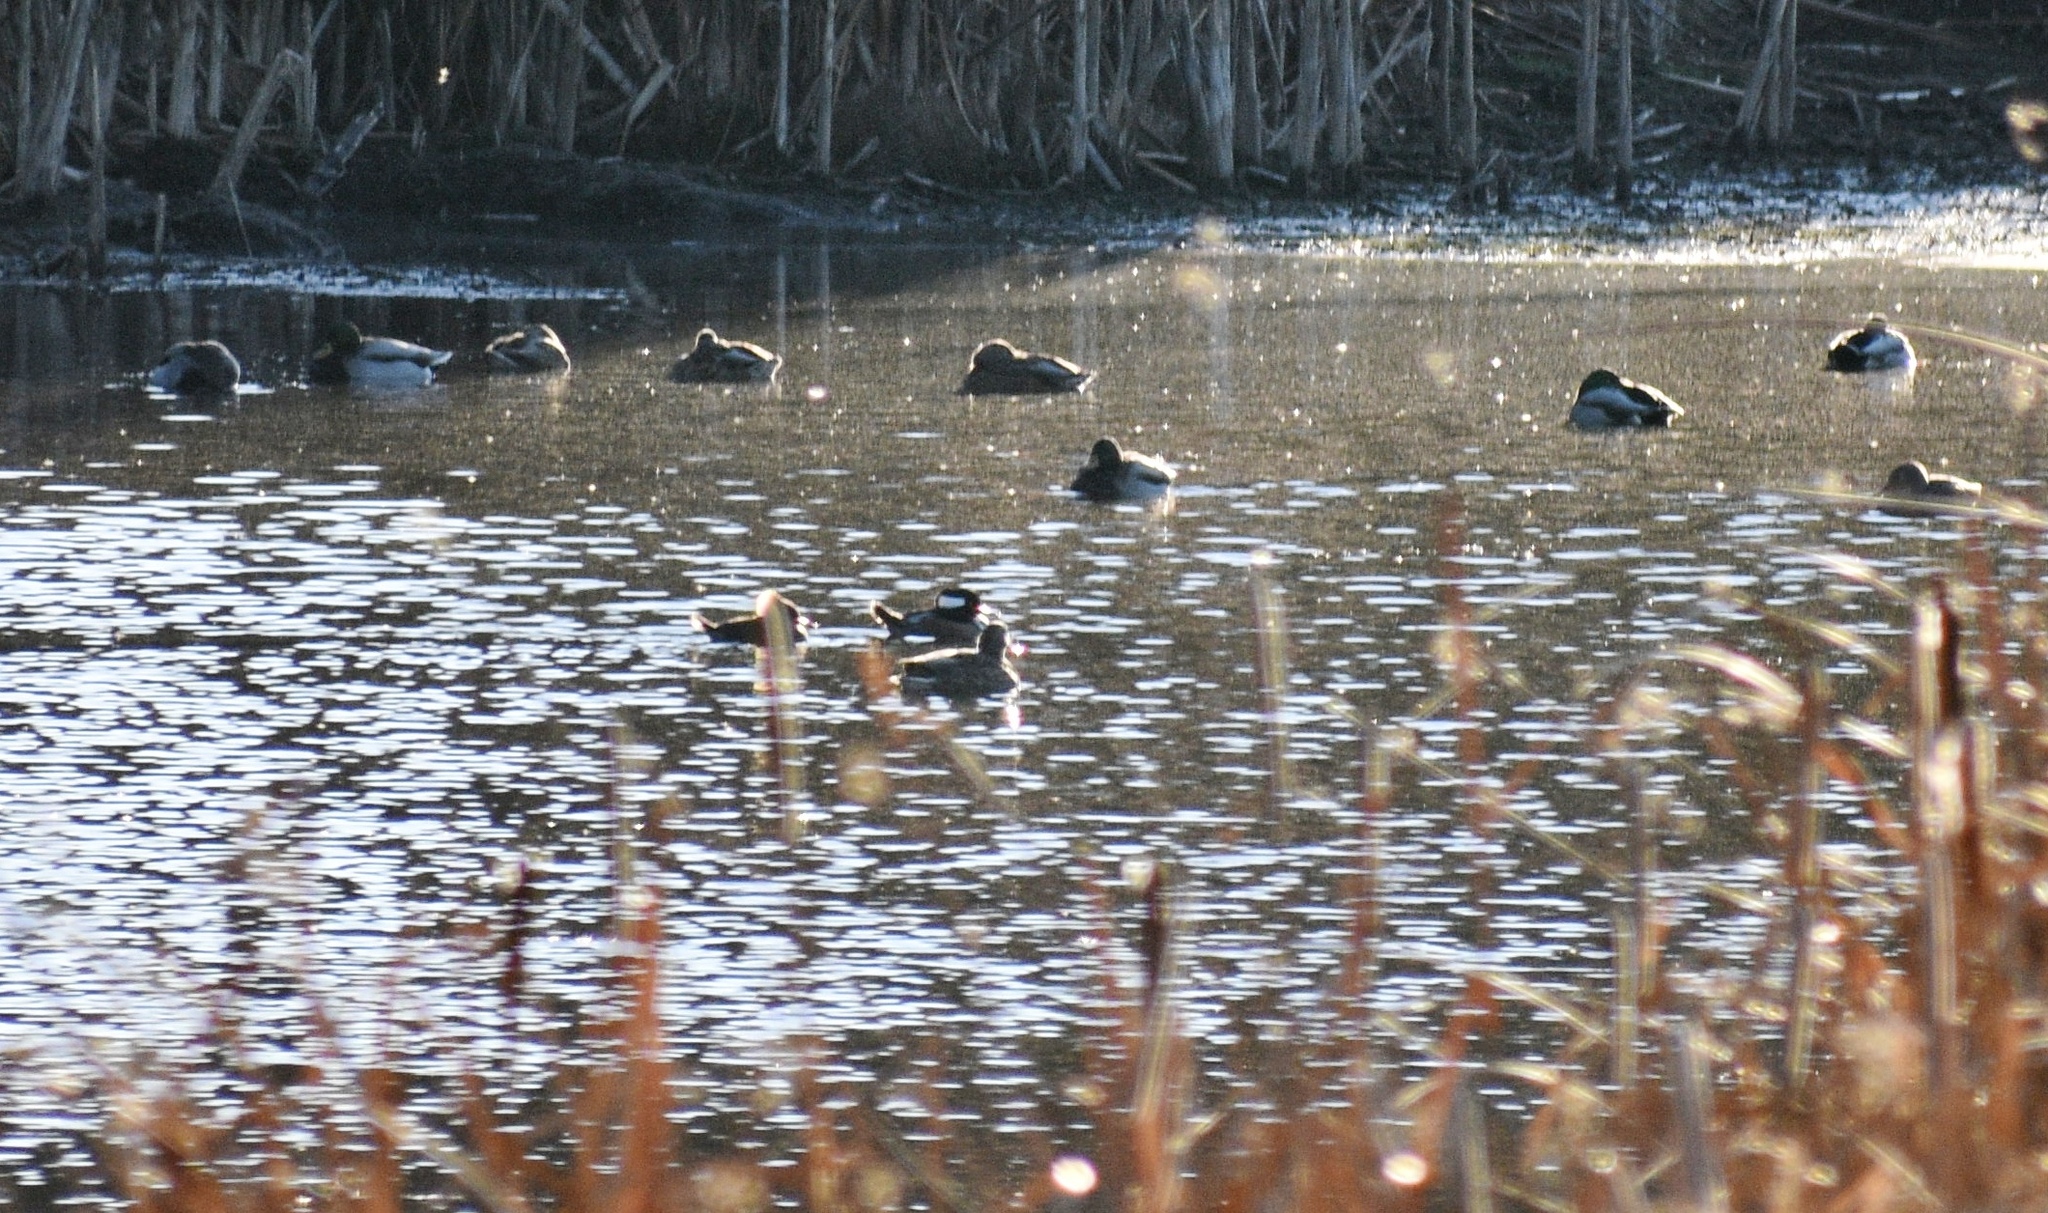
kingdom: Animalia
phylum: Chordata
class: Aves
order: Anseriformes
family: Anatidae
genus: Lophodytes
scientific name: Lophodytes cucullatus
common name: Hooded merganser
